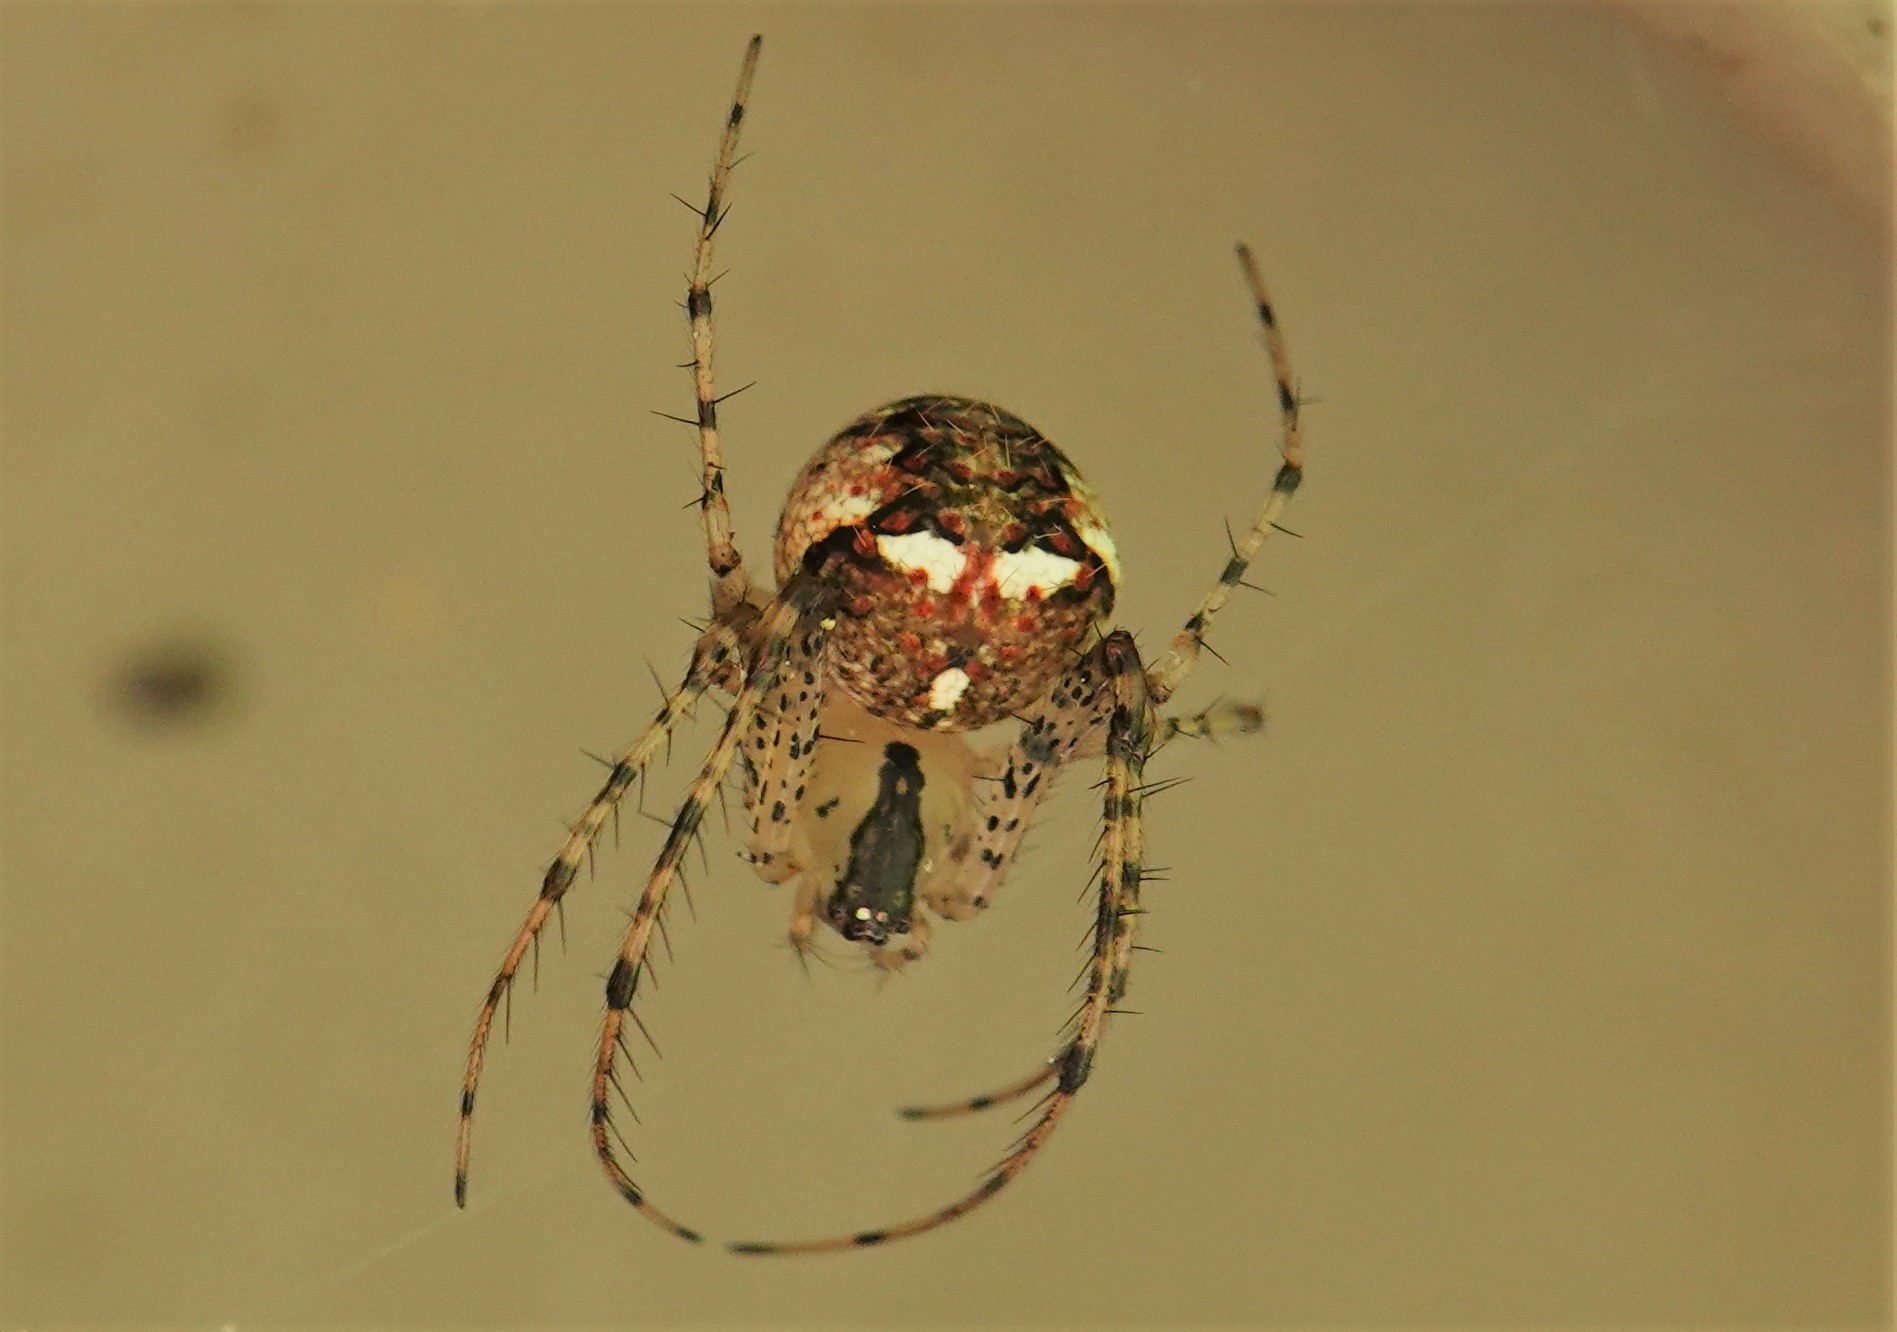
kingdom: Animalia
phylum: Arthropoda
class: Arachnida
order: Araneae
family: Mimetidae
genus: Mimetus
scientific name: Mimetus puritanus
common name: Common pirate spider
